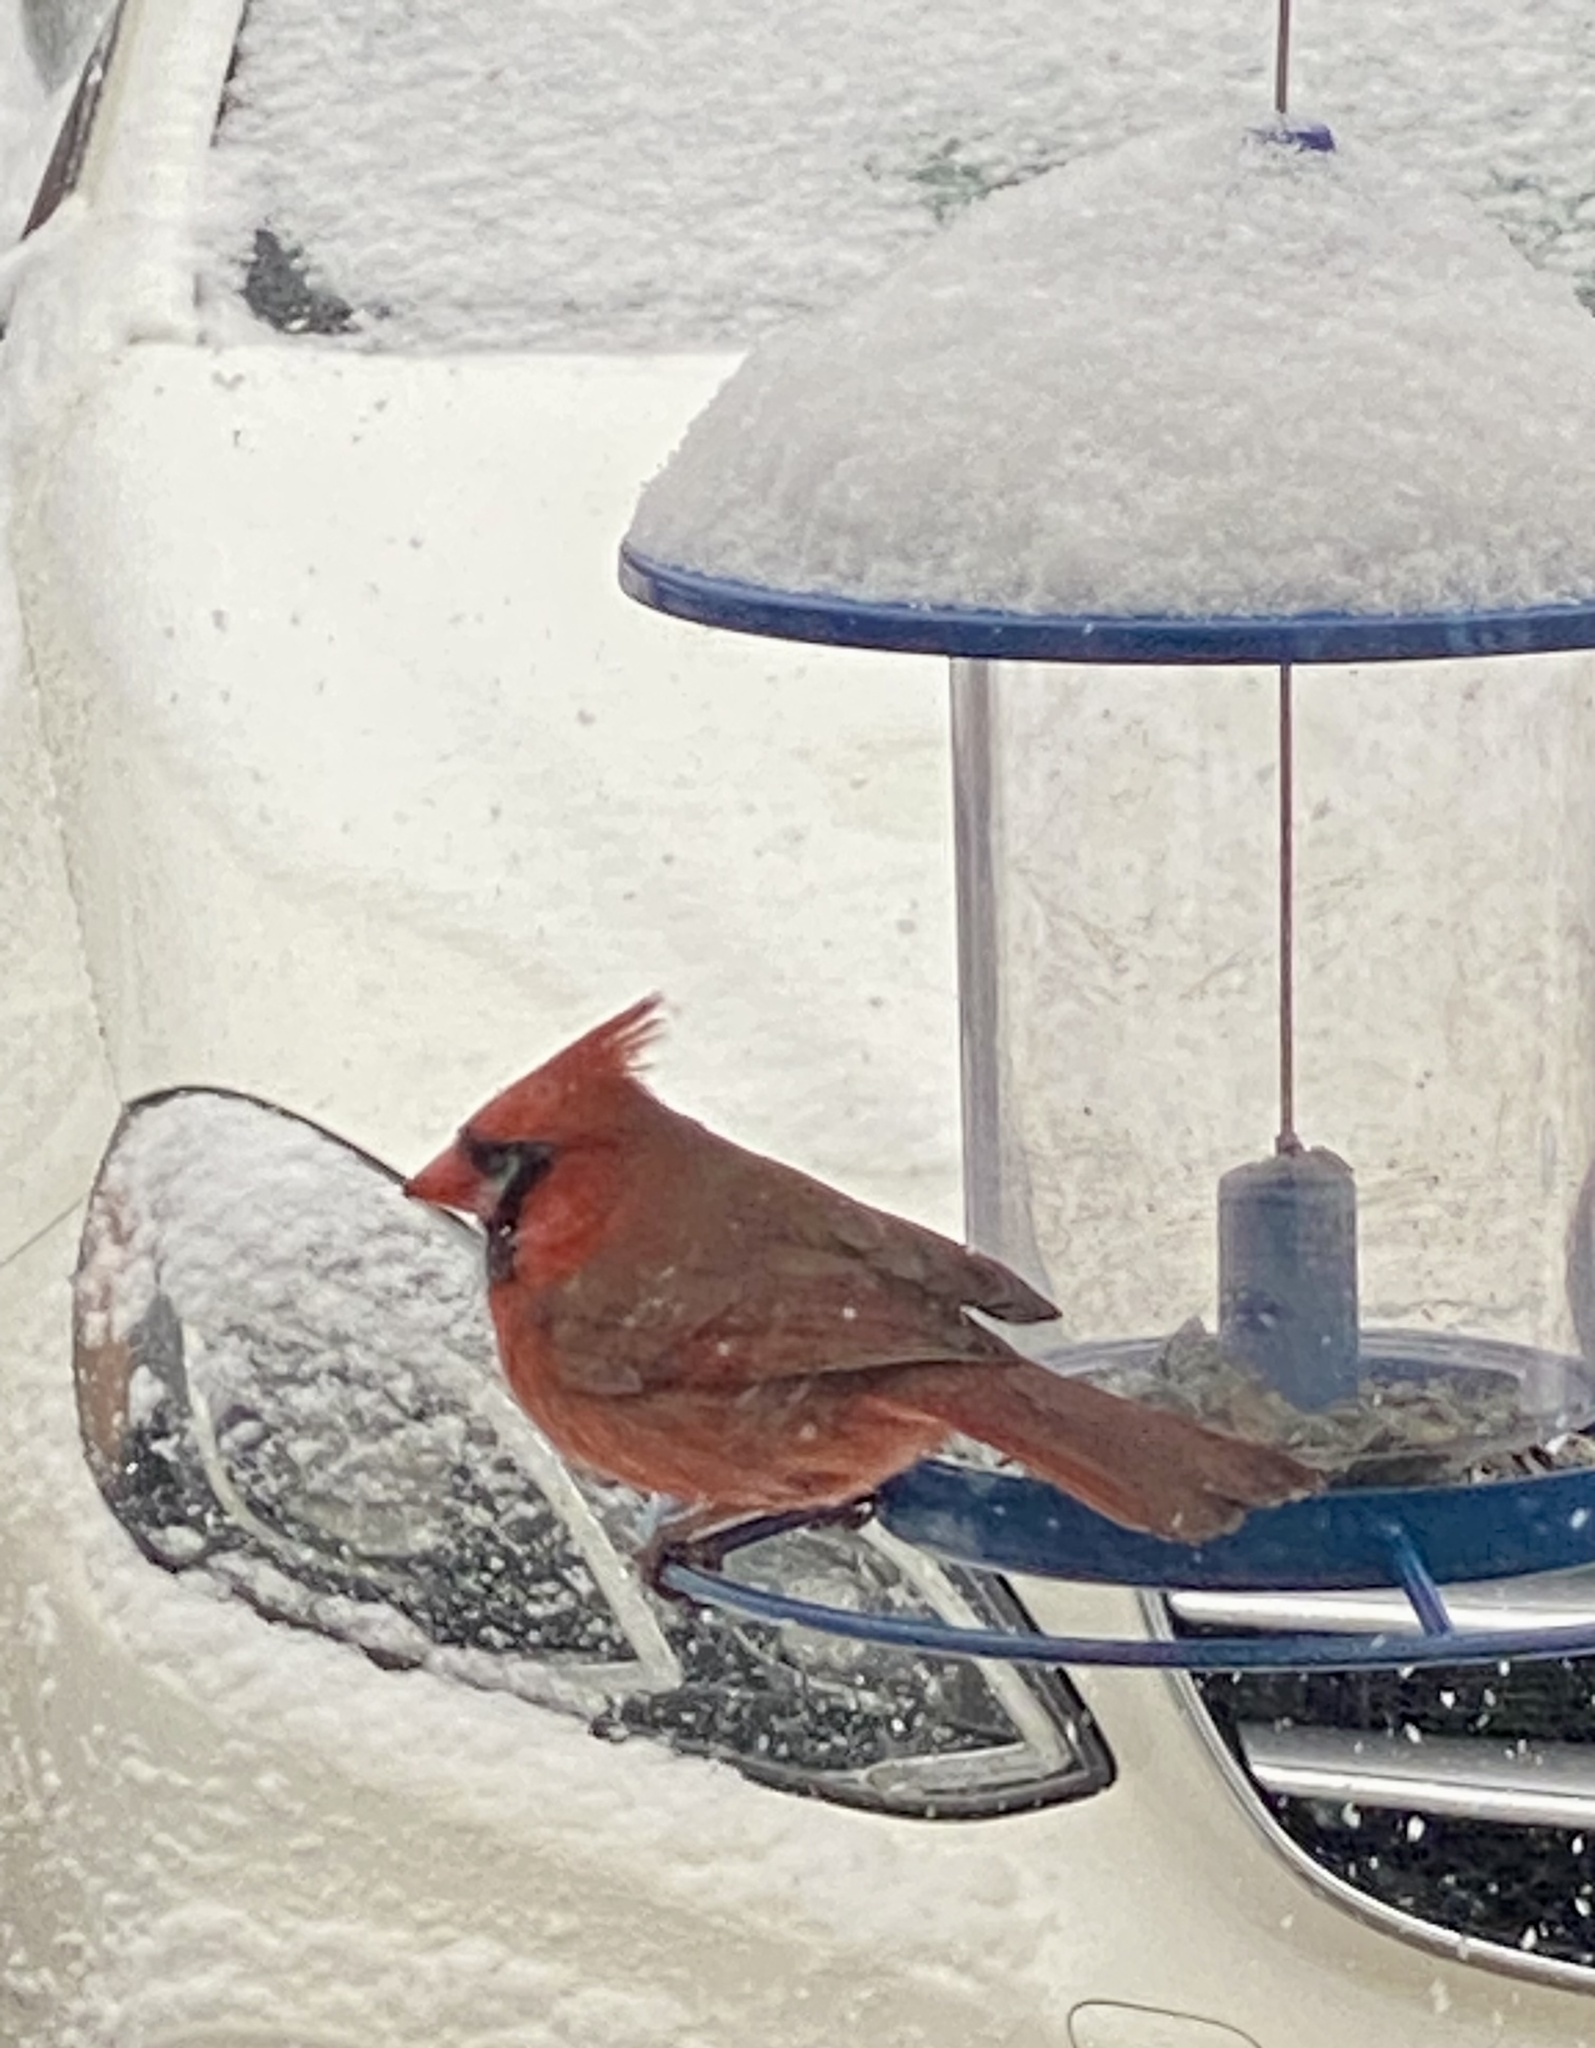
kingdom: Animalia
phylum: Chordata
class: Aves
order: Passeriformes
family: Cardinalidae
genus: Cardinalis
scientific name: Cardinalis cardinalis
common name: Northern cardinal
